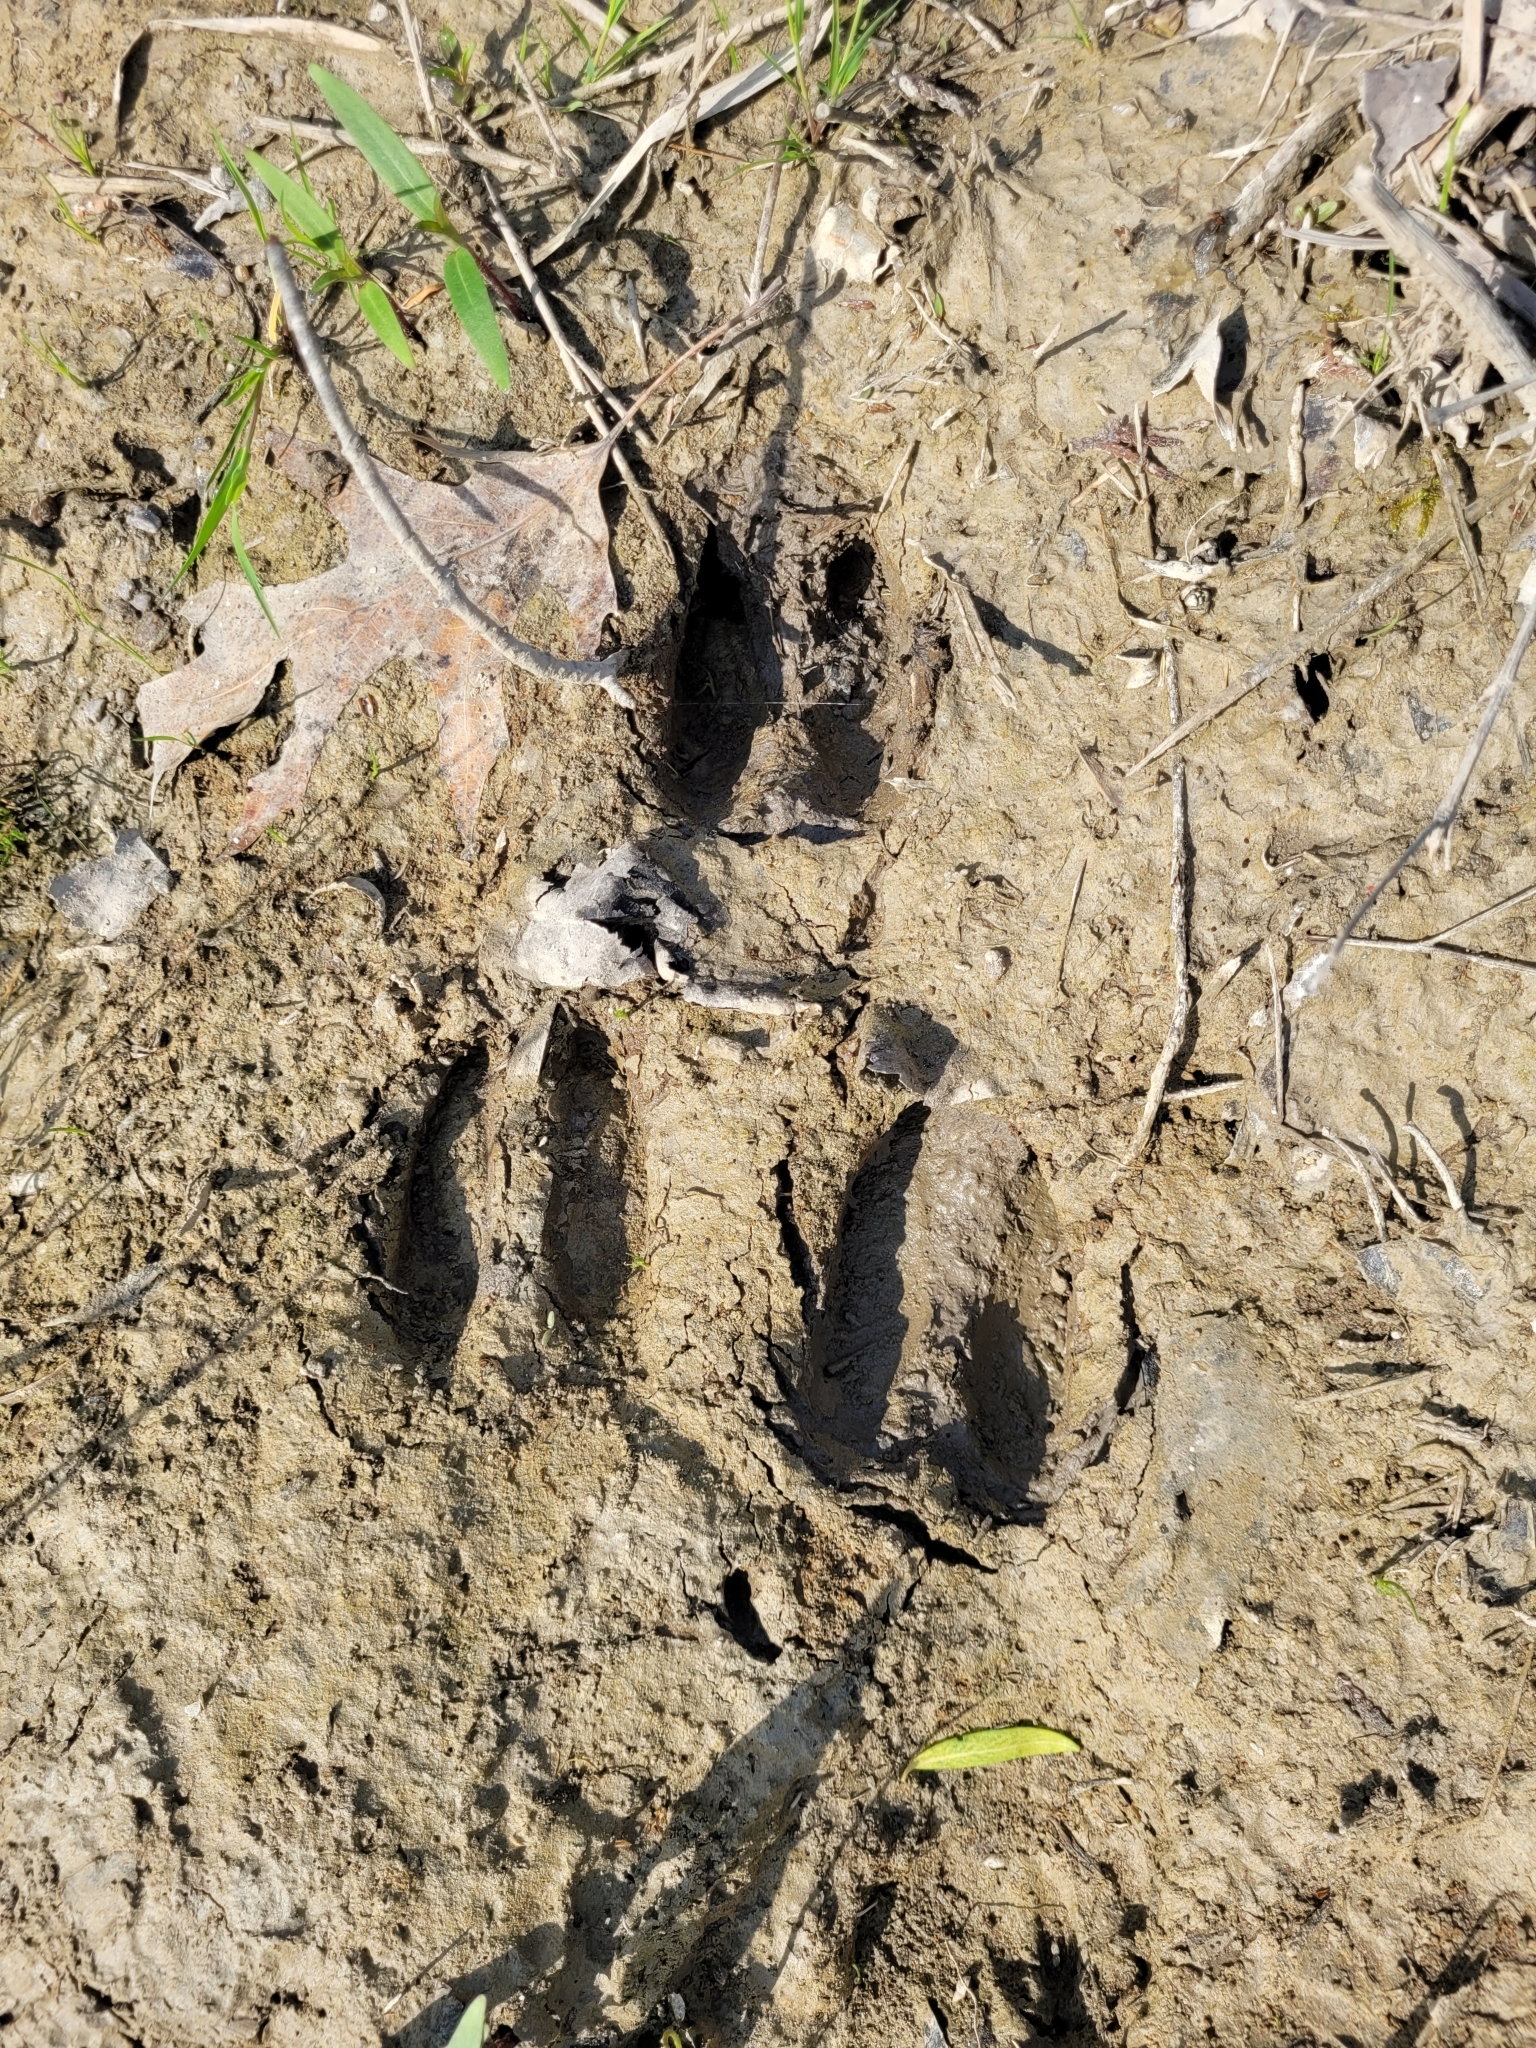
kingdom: Animalia
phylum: Chordata
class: Mammalia
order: Artiodactyla
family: Cervidae
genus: Odocoileus
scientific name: Odocoileus virginianus
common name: White-tailed deer
